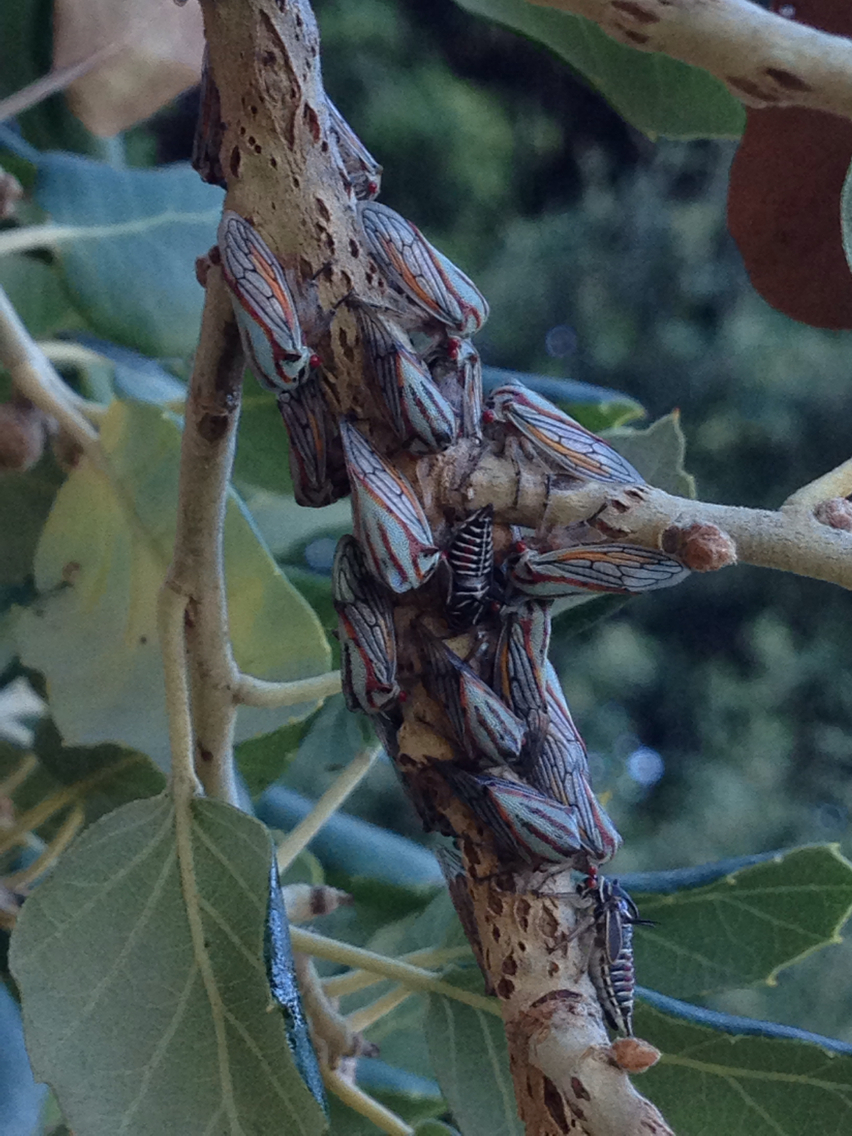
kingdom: Animalia
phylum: Arthropoda
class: Insecta
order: Hemiptera
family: Membracidae
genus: Platycotis
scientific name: Platycotis vittatus
